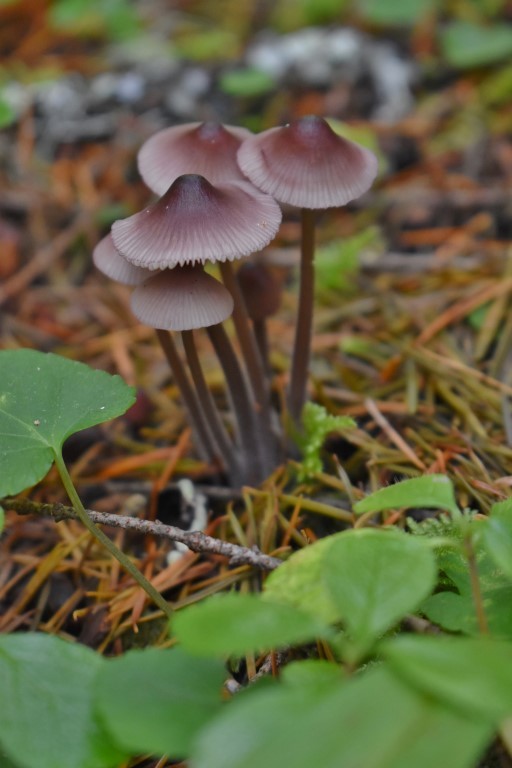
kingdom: Fungi
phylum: Basidiomycota
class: Agaricomycetes
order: Agaricales
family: Mycenaceae
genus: Mycena
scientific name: Mycena purpureofusca
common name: Purple edge bonnet
